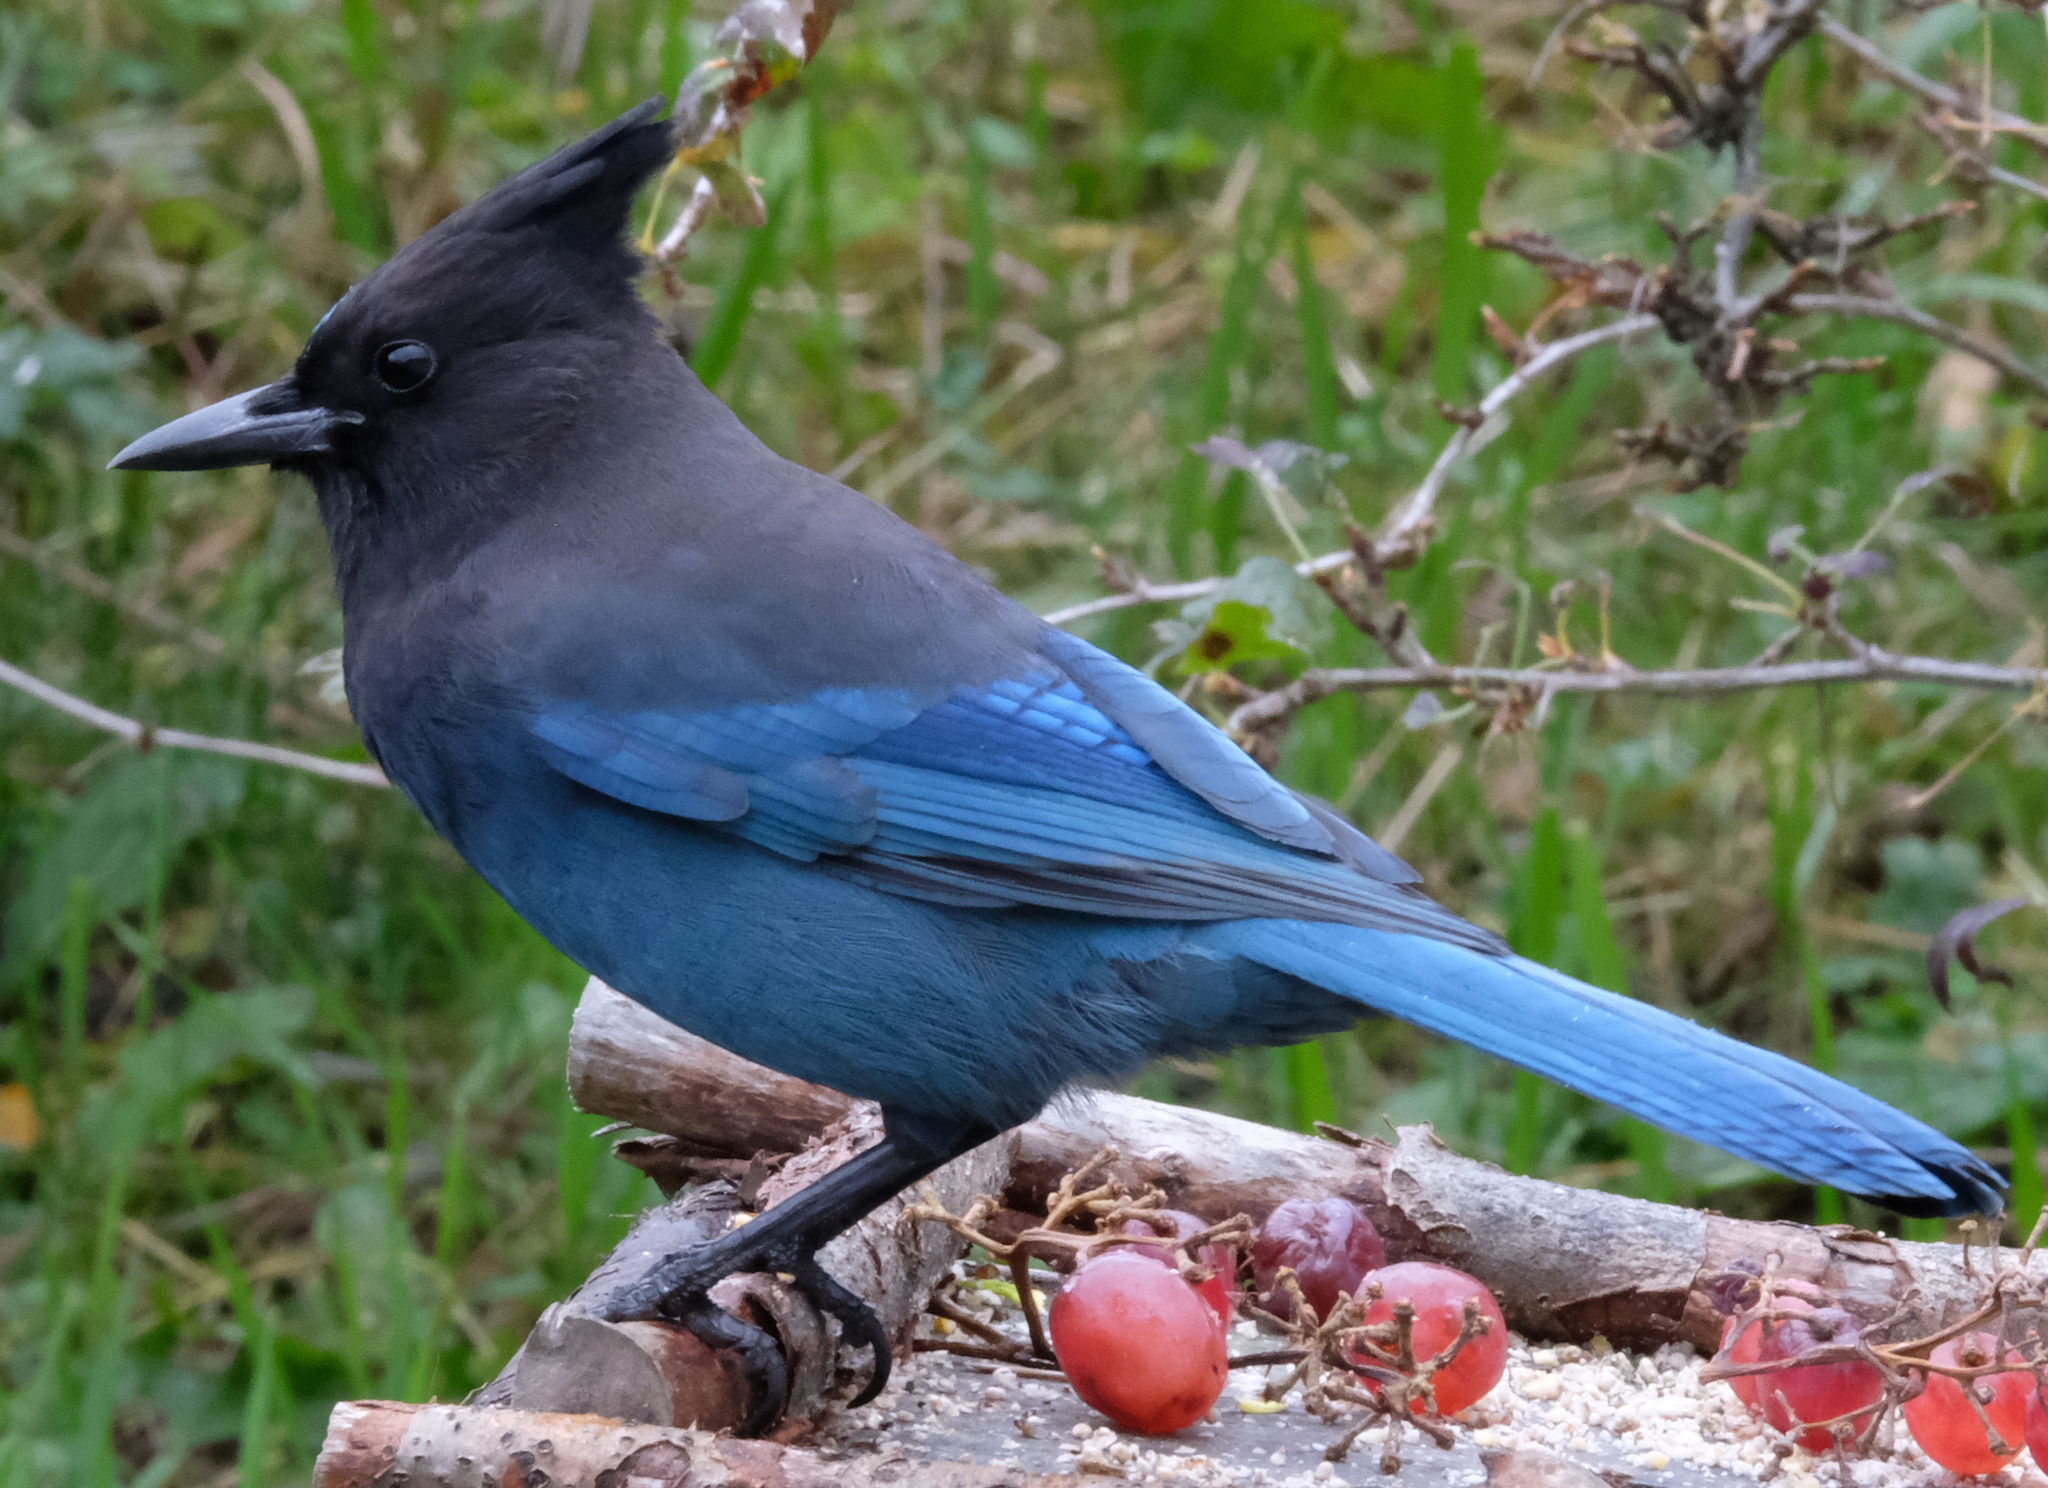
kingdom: Animalia
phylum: Chordata
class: Aves
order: Passeriformes
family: Corvidae
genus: Cyanocitta
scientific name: Cyanocitta stelleri
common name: Steller's jay
